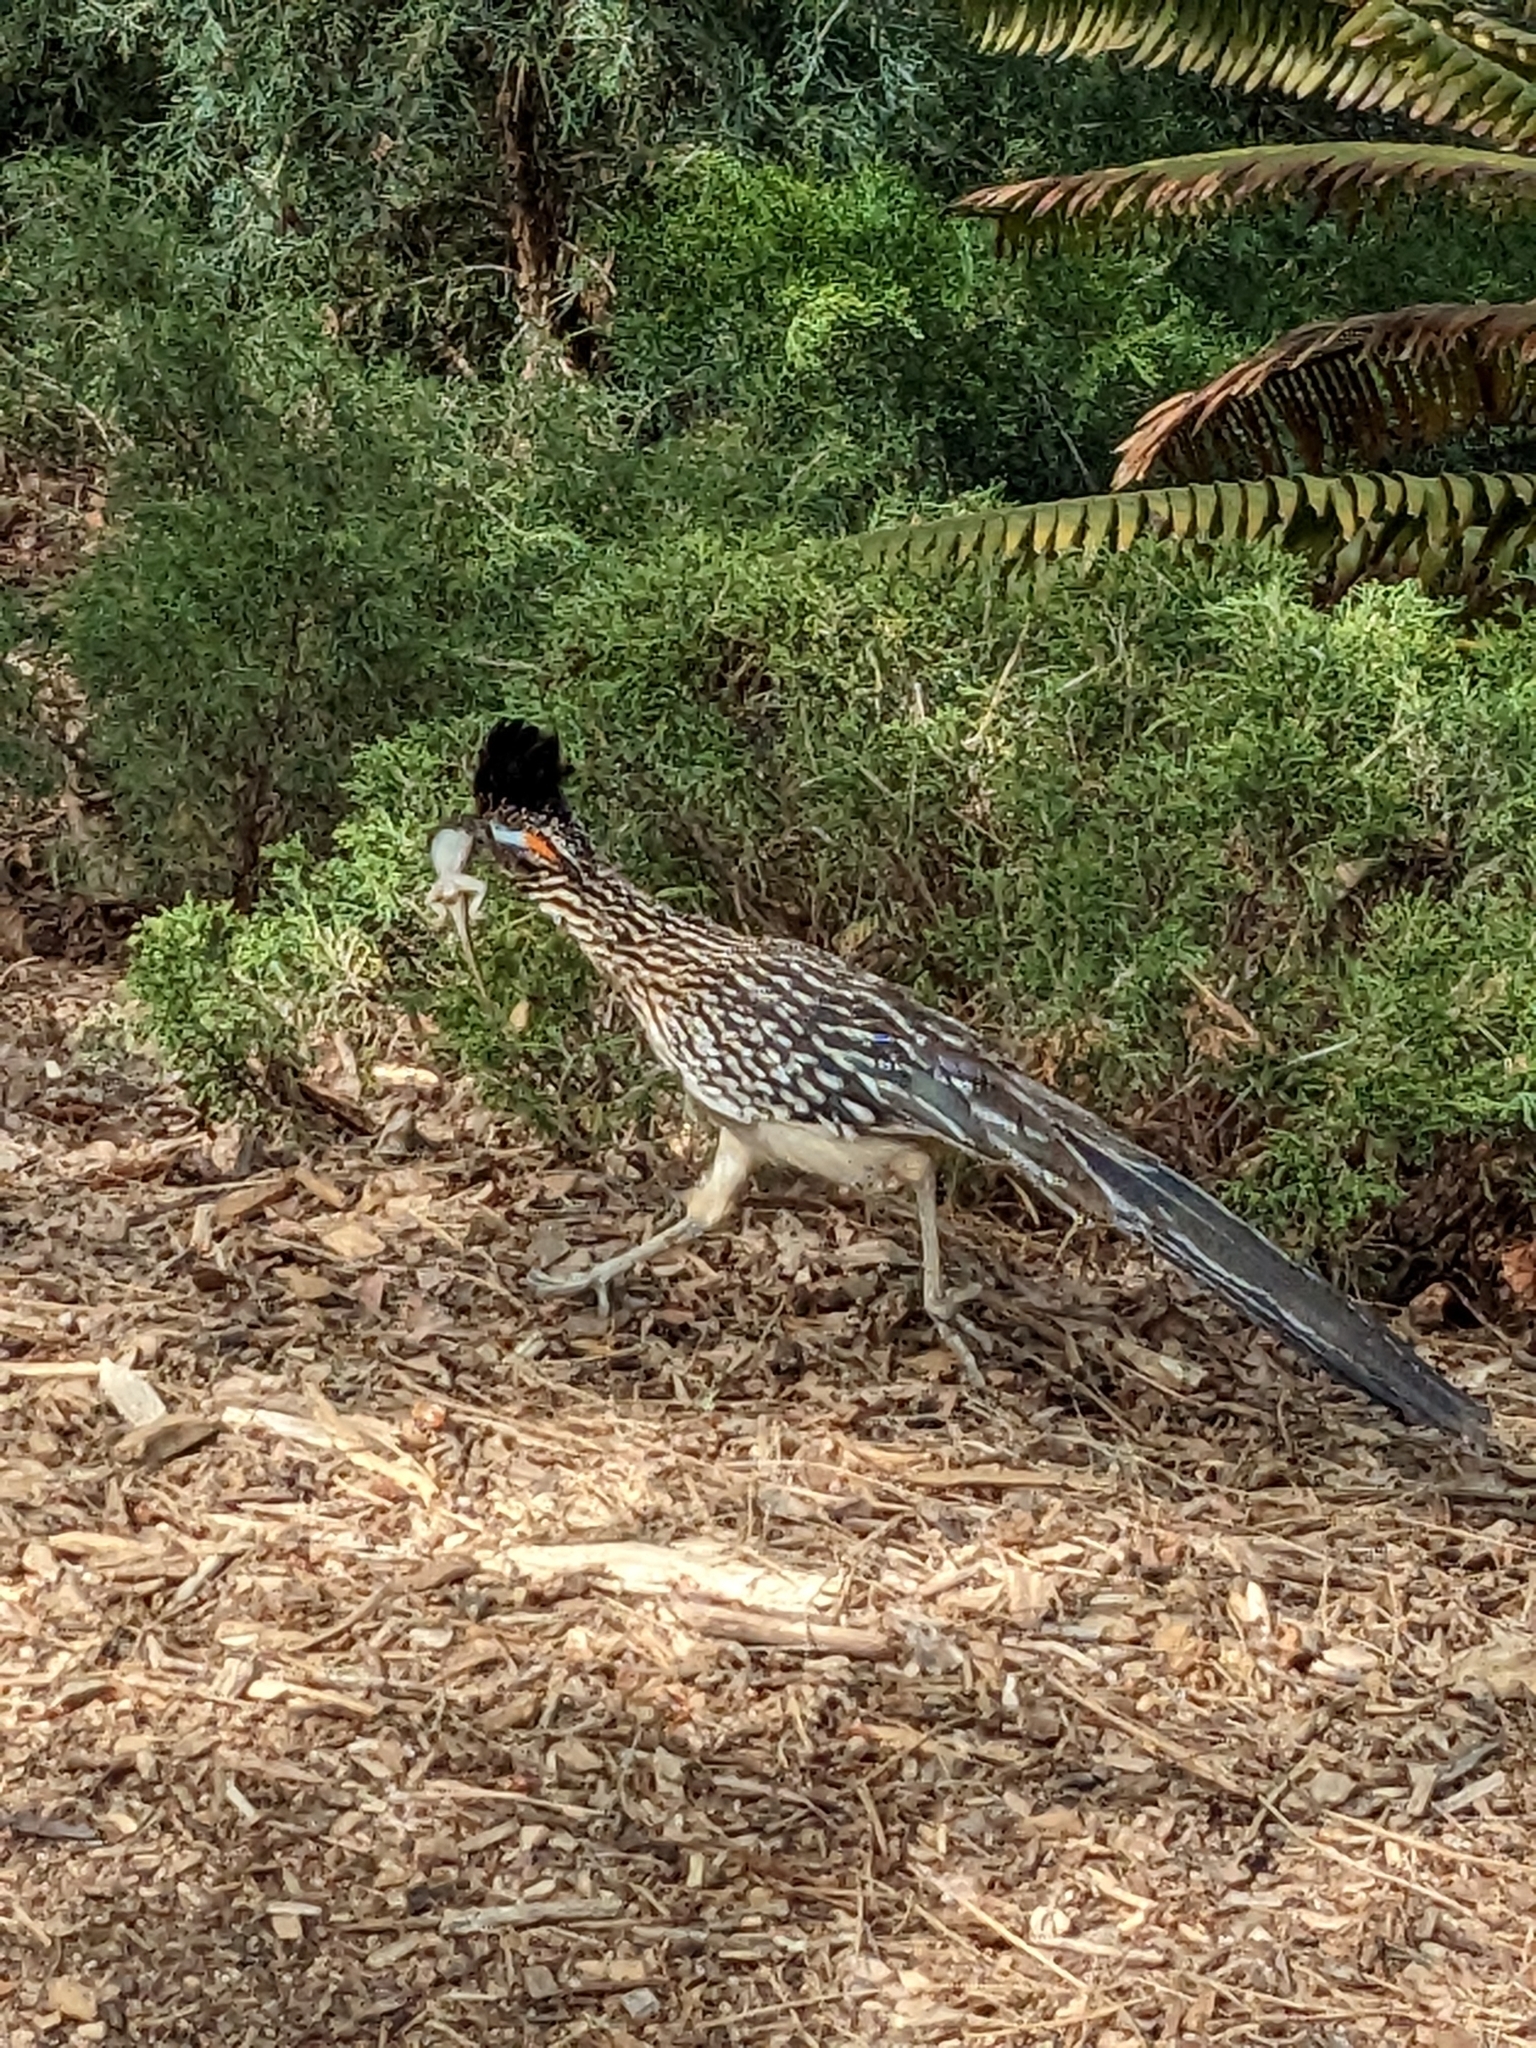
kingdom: Animalia
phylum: Chordata
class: Aves
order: Cuculiformes
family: Cuculidae
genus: Geococcyx
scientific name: Geococcyx californianus
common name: Greater roadrunner
